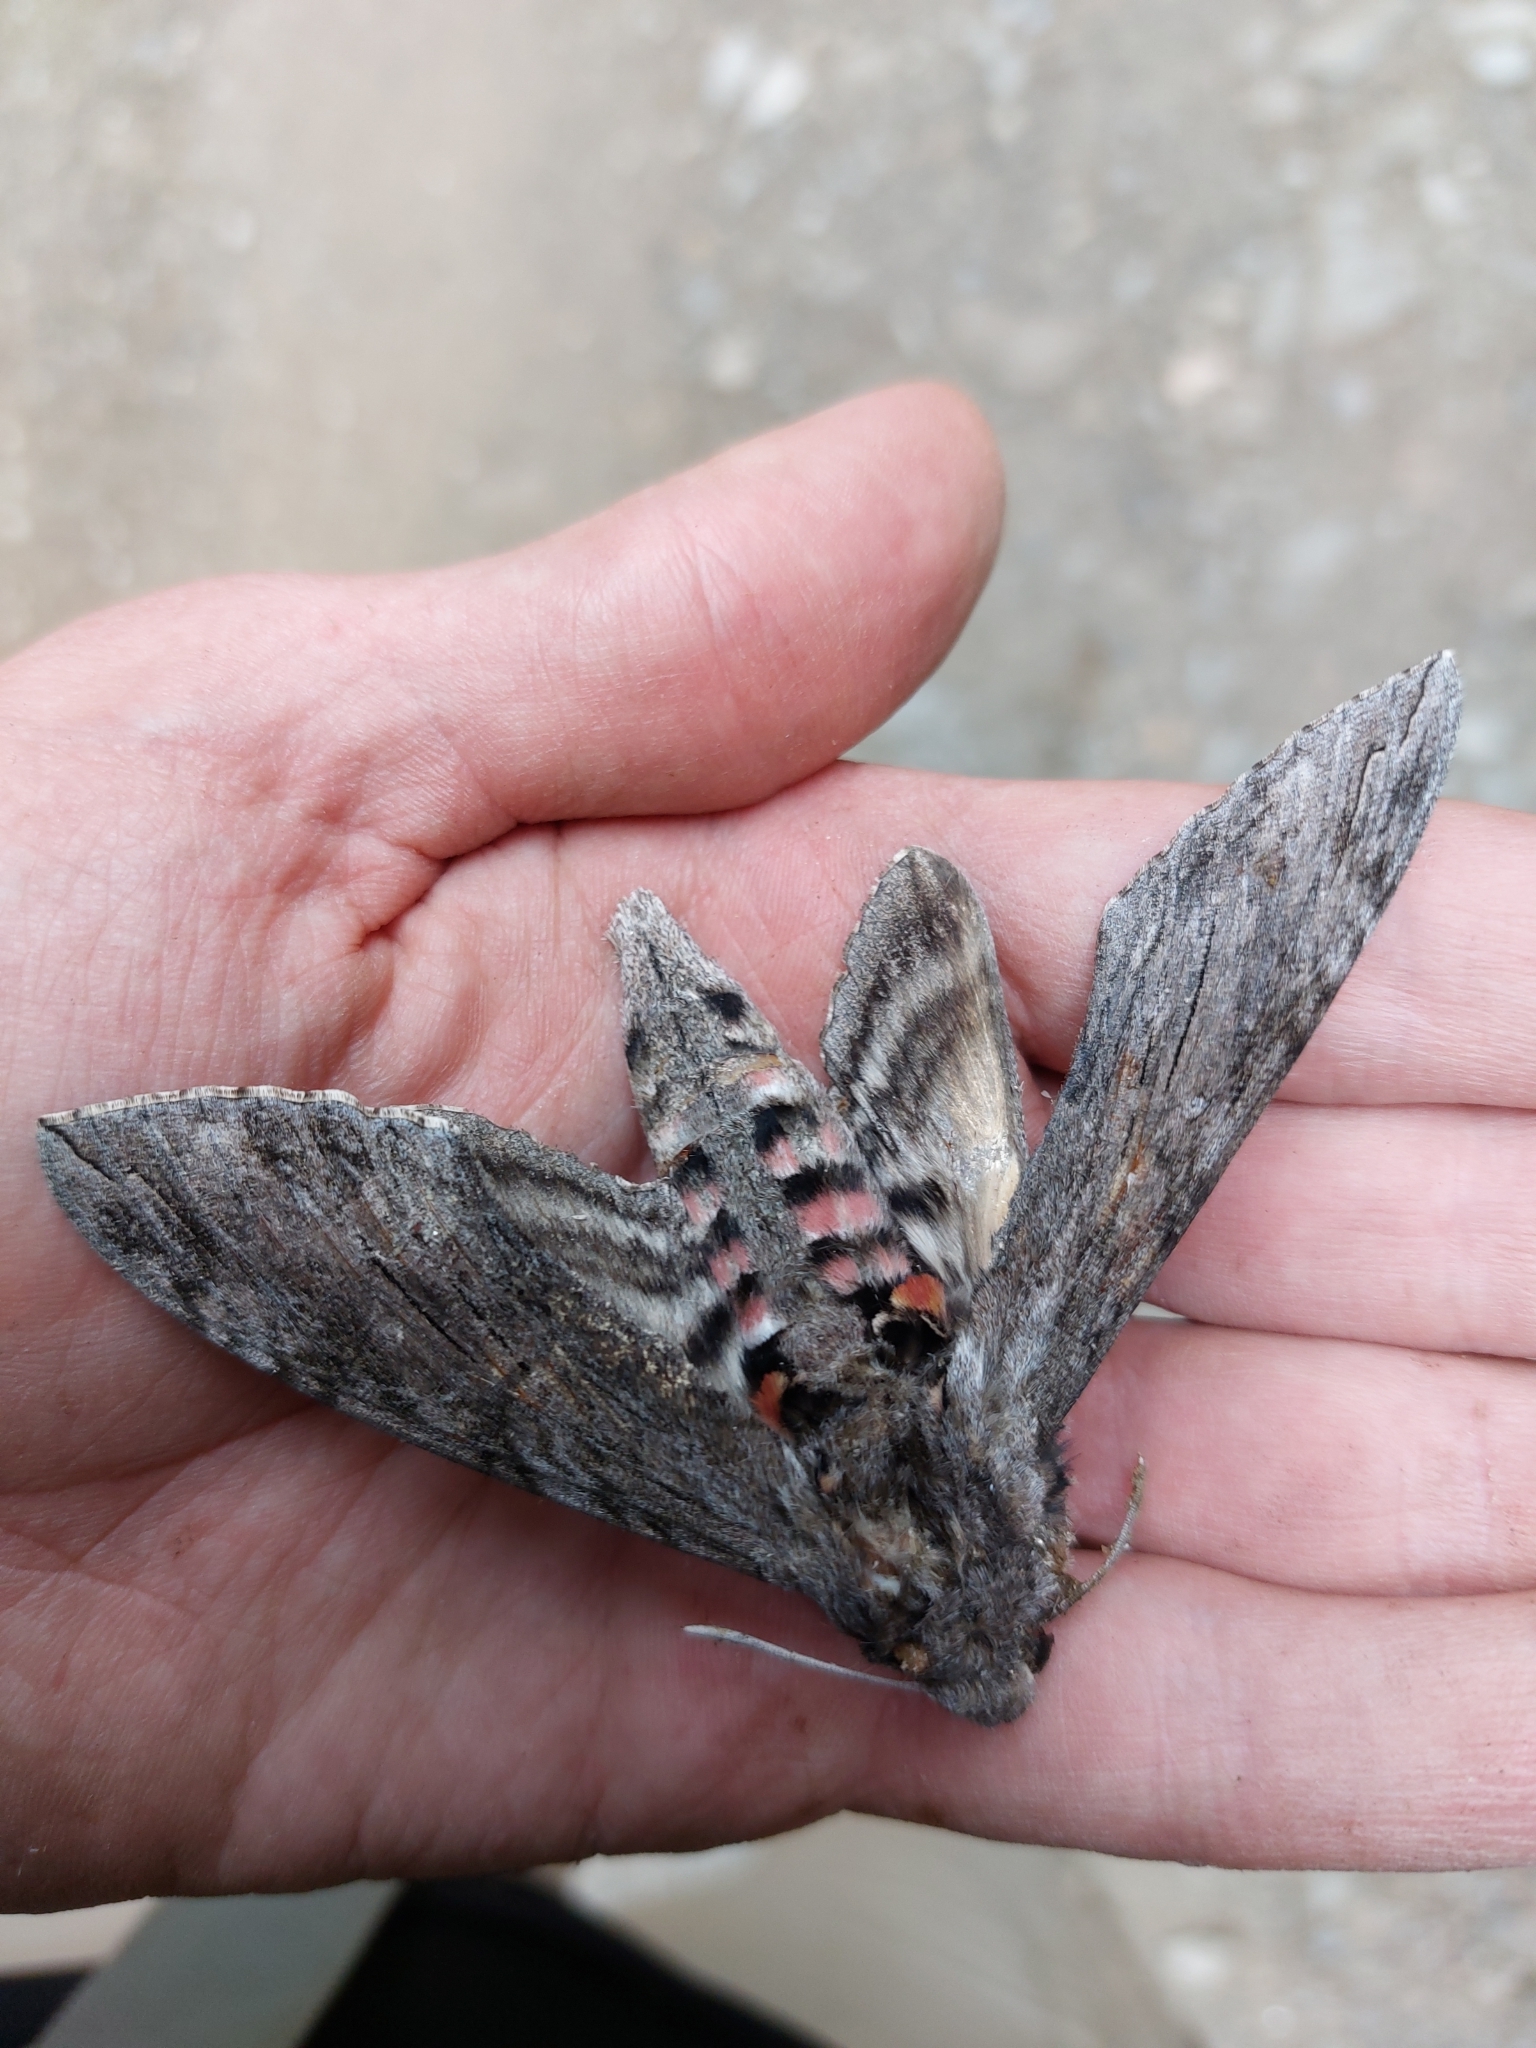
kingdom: Animalia
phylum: Arthropoda
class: Insecta
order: Lepidoptera
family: Sphingidae
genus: Agrius
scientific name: Agrius convolvuli
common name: Convolvulus hawkmoth
